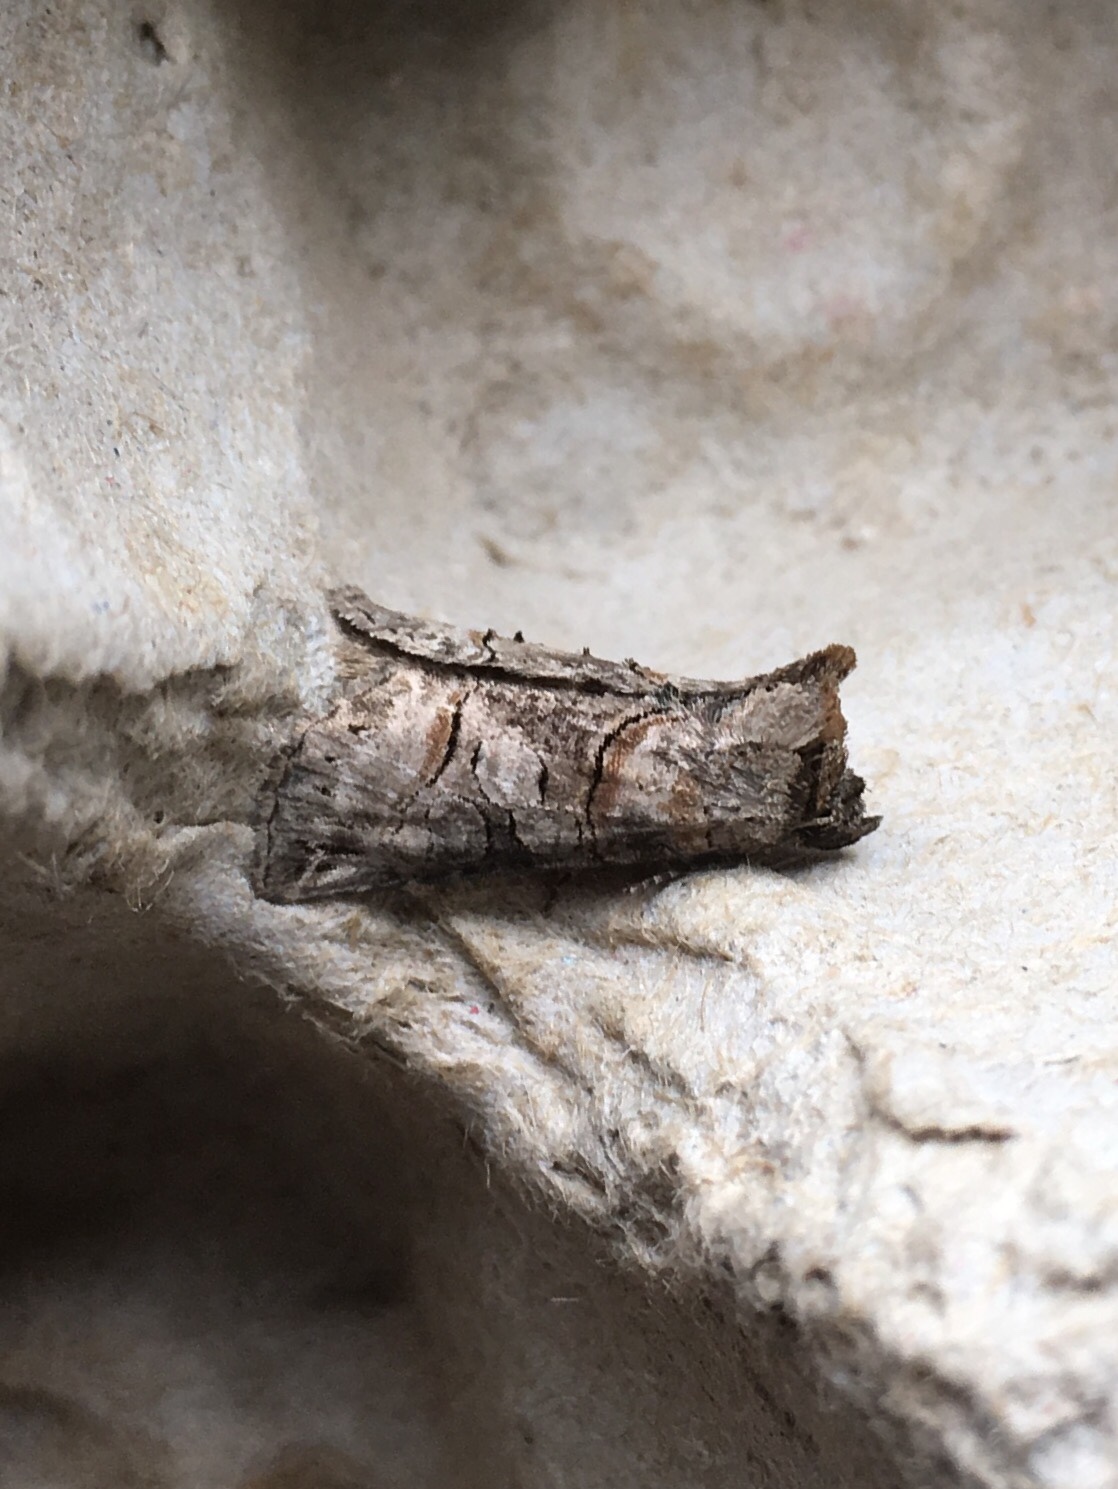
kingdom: Animalia
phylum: Arthropoda
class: Insecta
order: Lepidoptera
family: Noctuidae
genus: Abrostola
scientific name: Abrostola urentis
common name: Spectacled nettle moth
